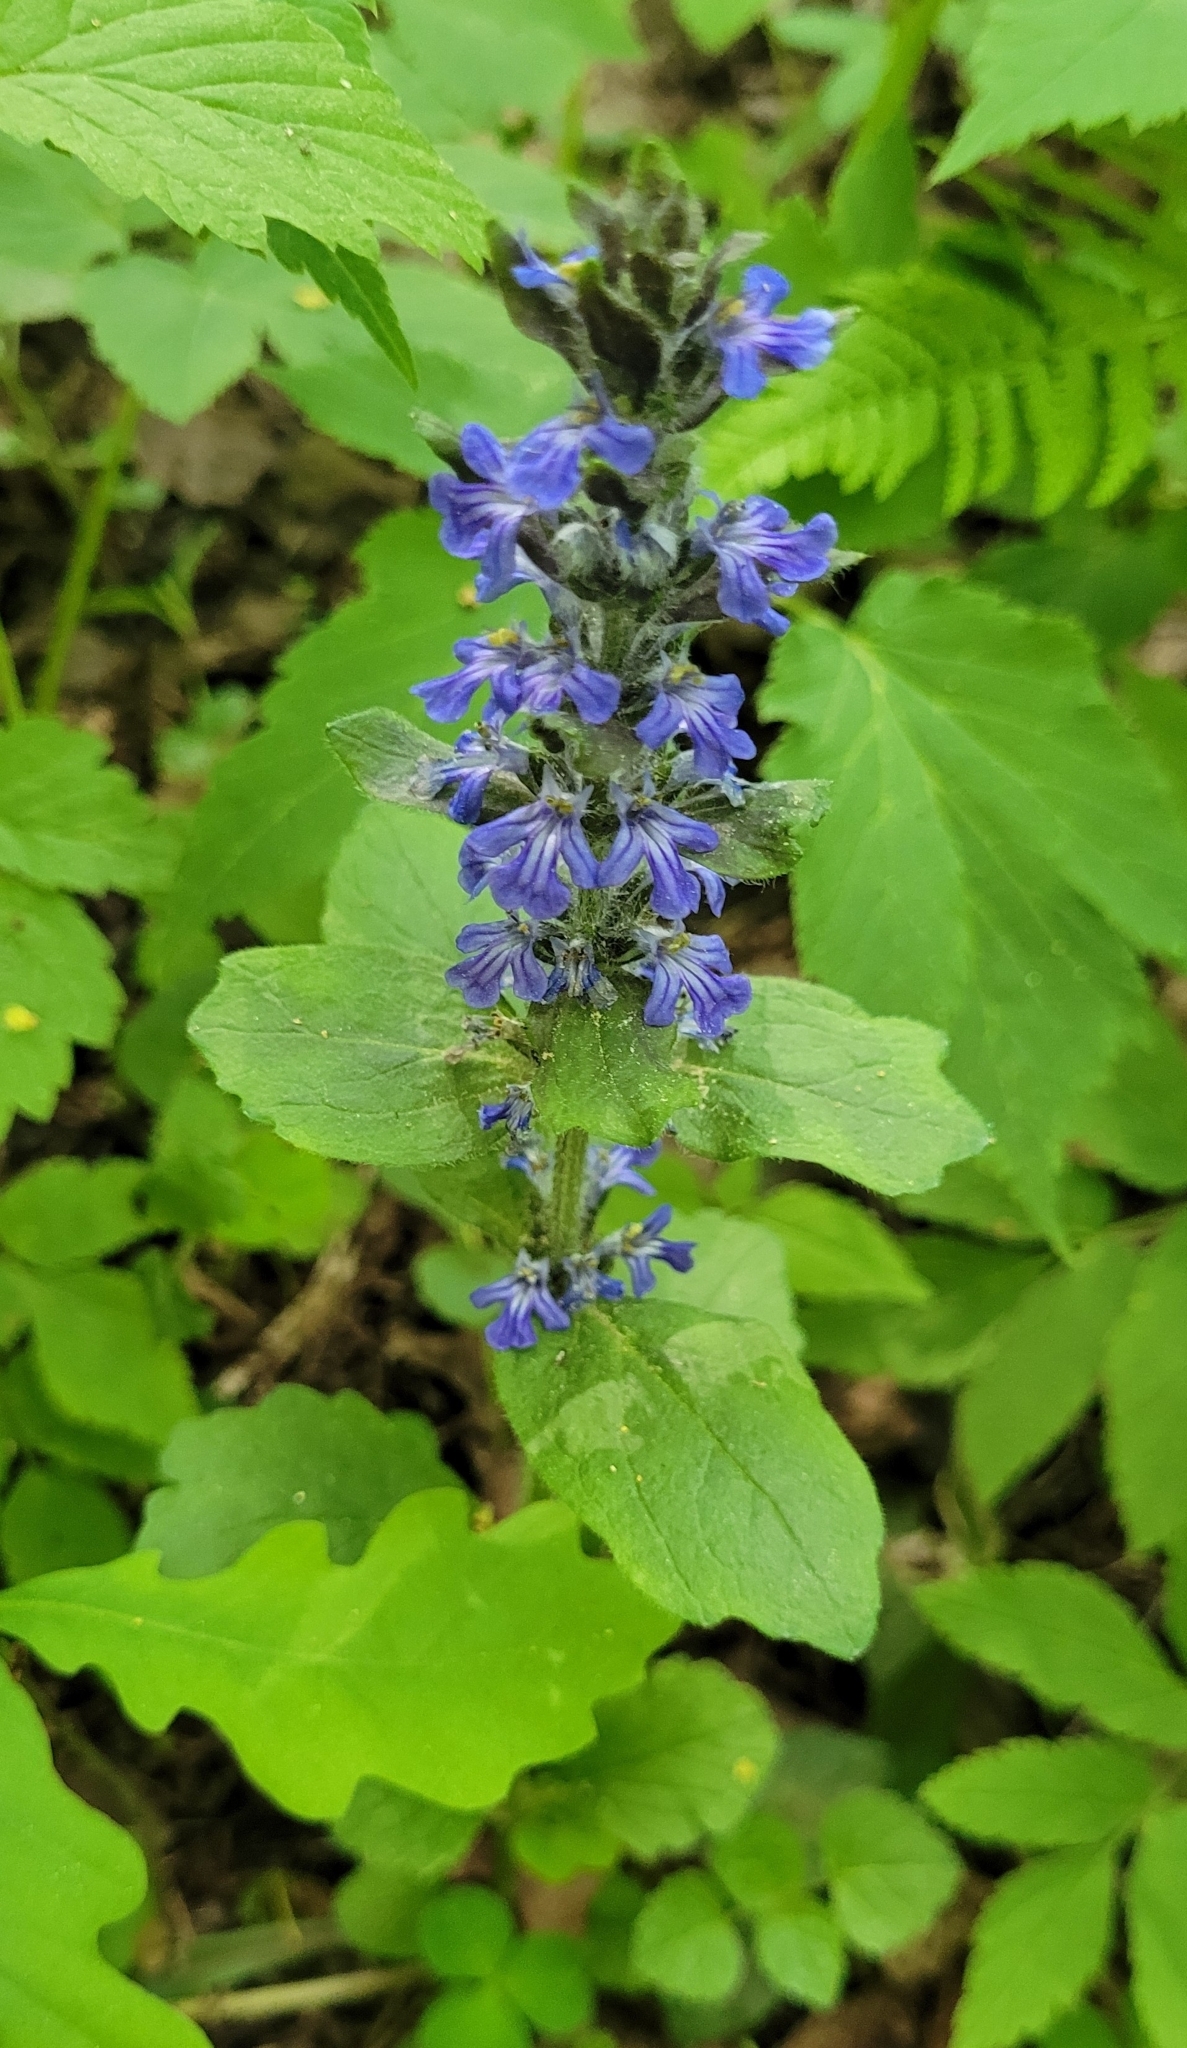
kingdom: Plantae
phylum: Tracheophyta
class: Magnoliopsida
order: Lamiales
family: Lamiaceae
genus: Ajuga
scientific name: Ajuga reptans
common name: Bugle
